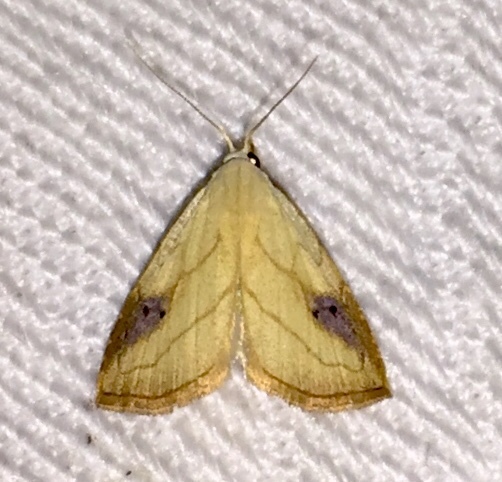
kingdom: Animalia
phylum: Arthropoda
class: Insecta
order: Lepidoptera
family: Erebidae
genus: Rivula
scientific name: Rivula propinqualis
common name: Spotted grass moth
